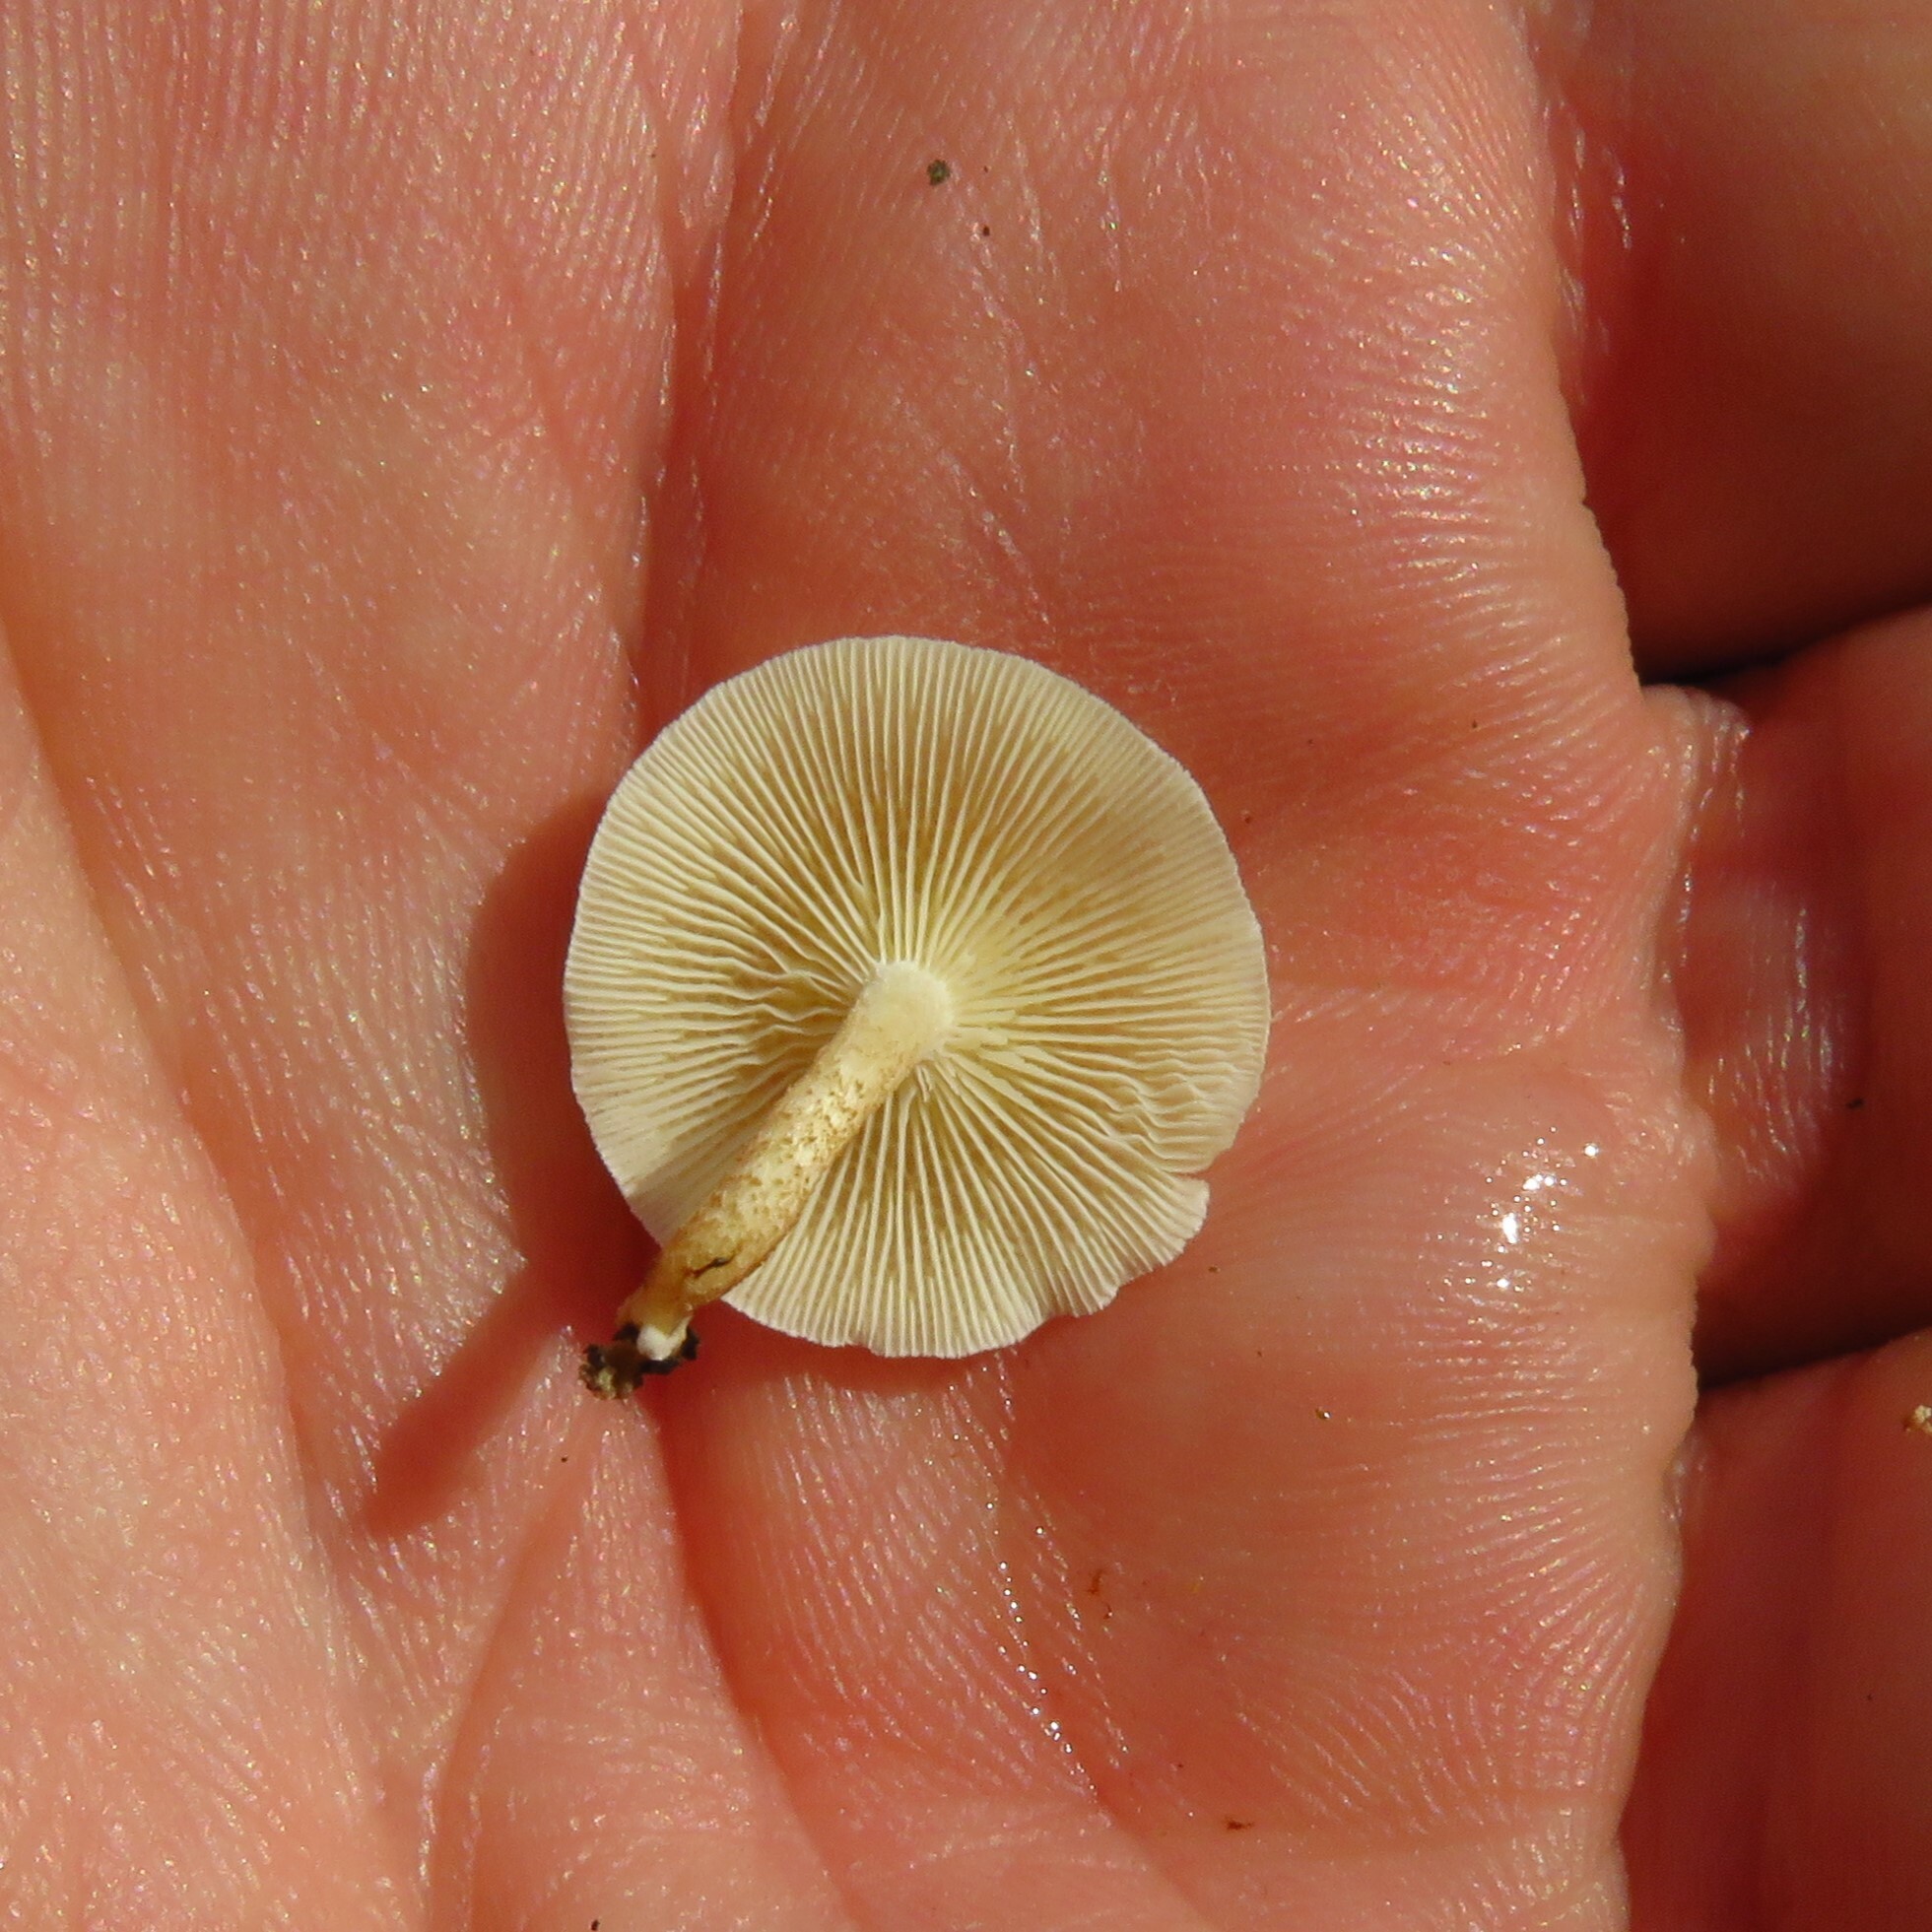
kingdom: Fungi
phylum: Basidiomycota
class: Agaricomycetes
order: Polyporales
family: Polyporaceae
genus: Lentinus
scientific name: Lentinus tigrinus
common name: Tiger sawgill
